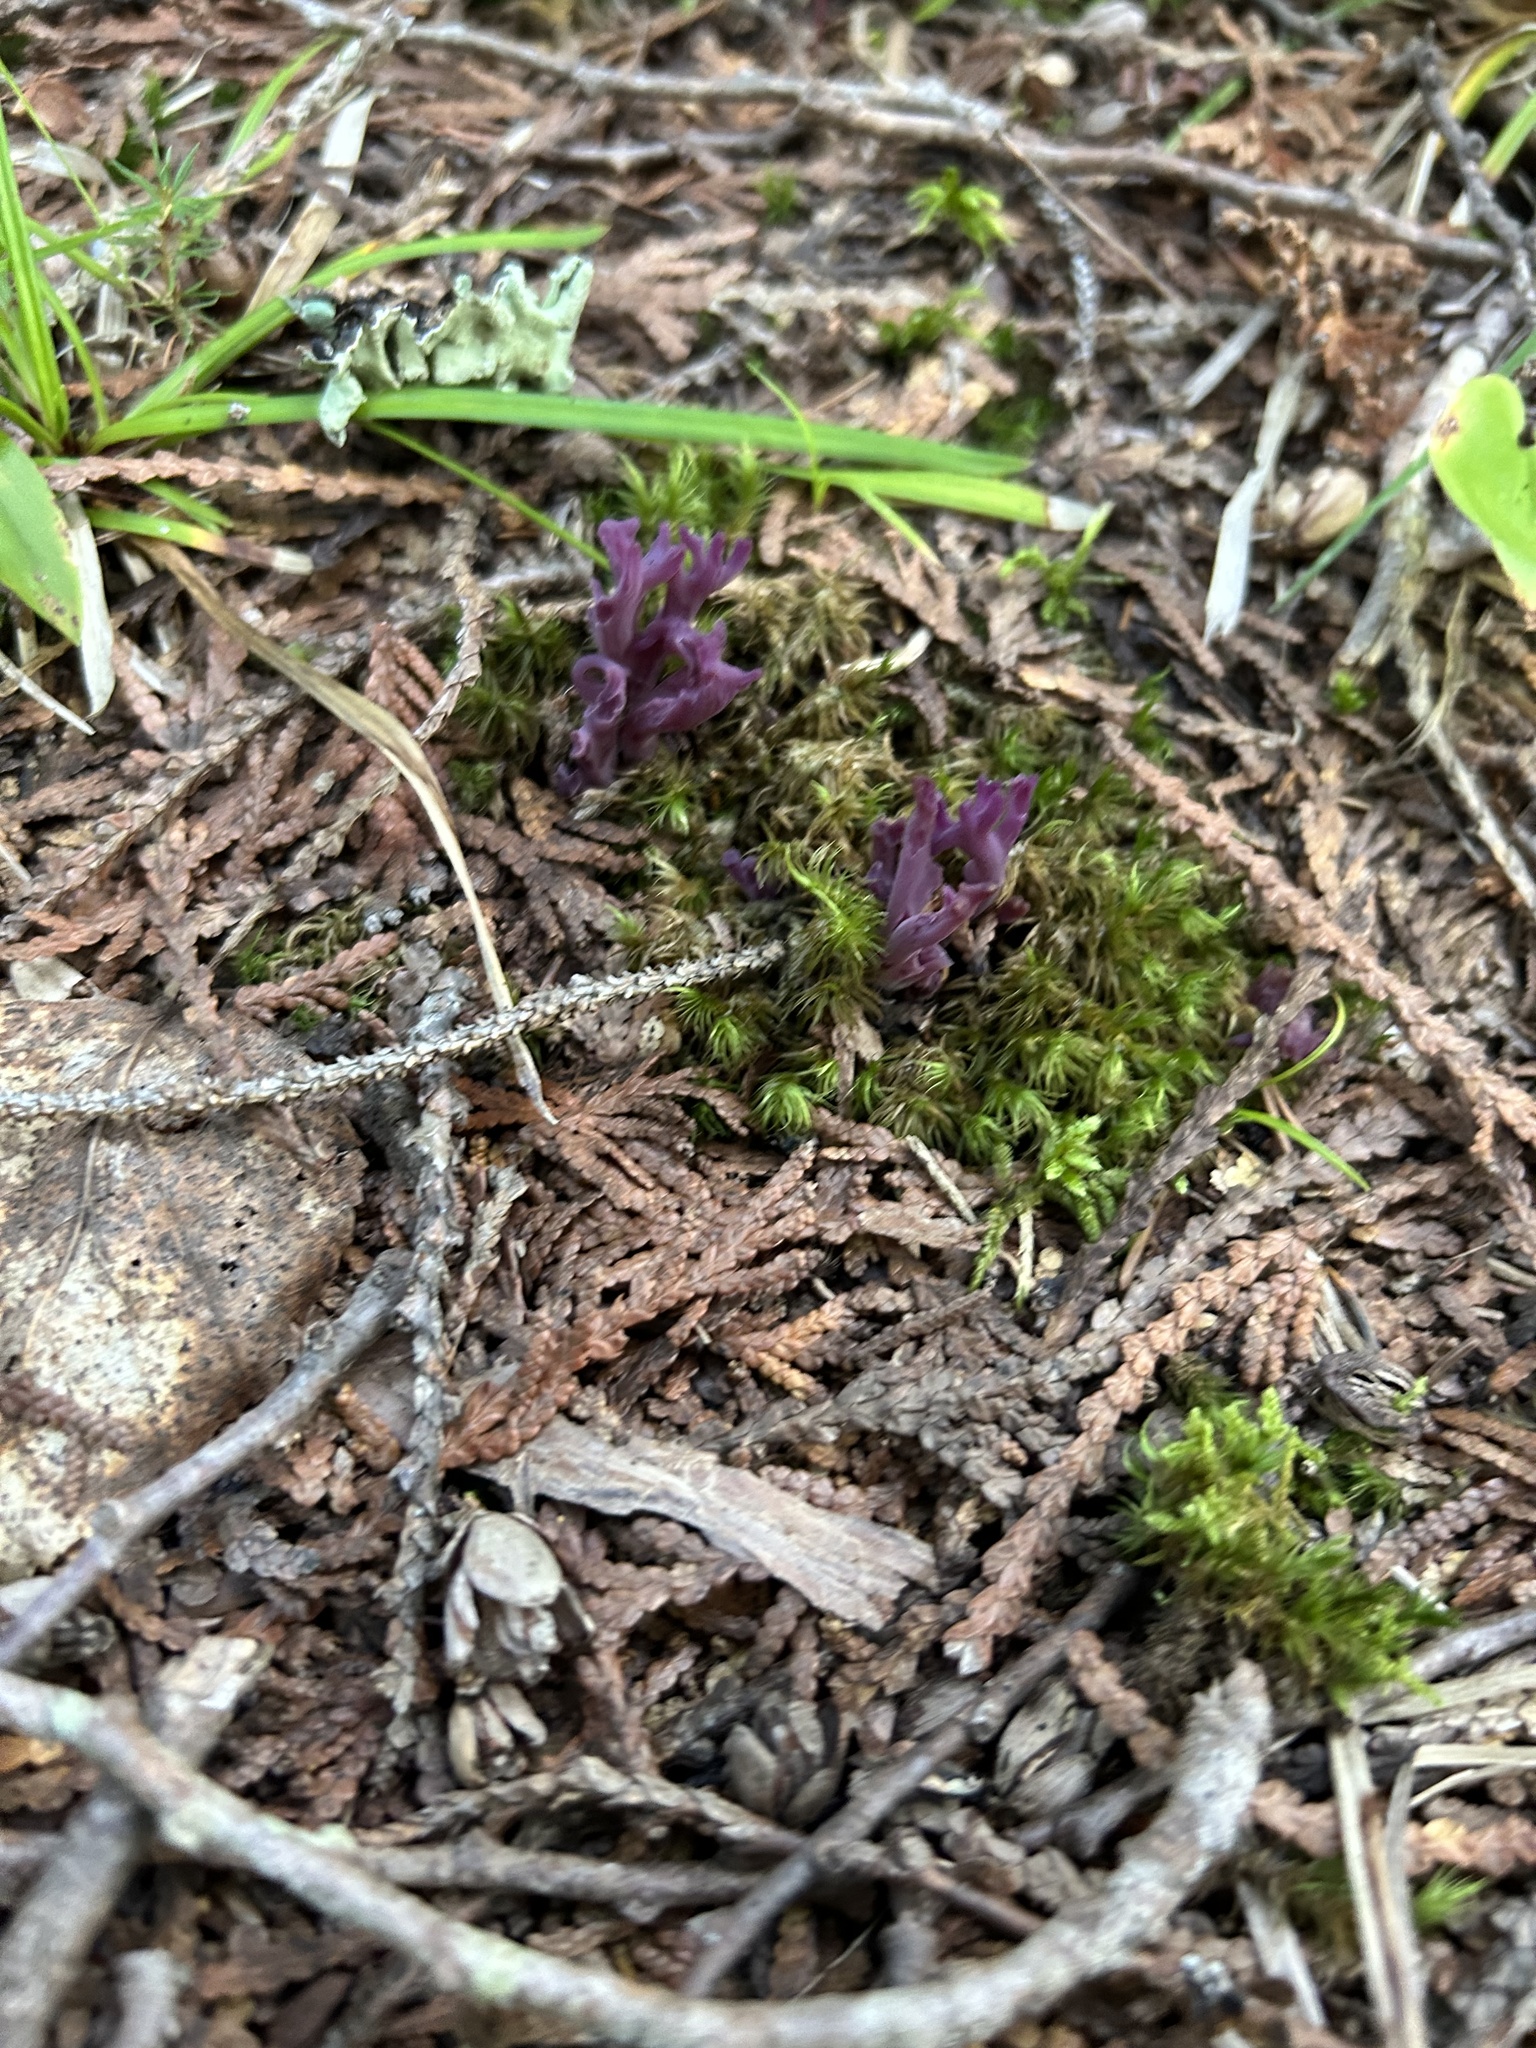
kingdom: Fungi
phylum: Basidiomycota
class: Agaricomycetes
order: Agaricales
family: Clavariaceae
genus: Clavaria
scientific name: Clavaria zollingeri
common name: Violet coral
